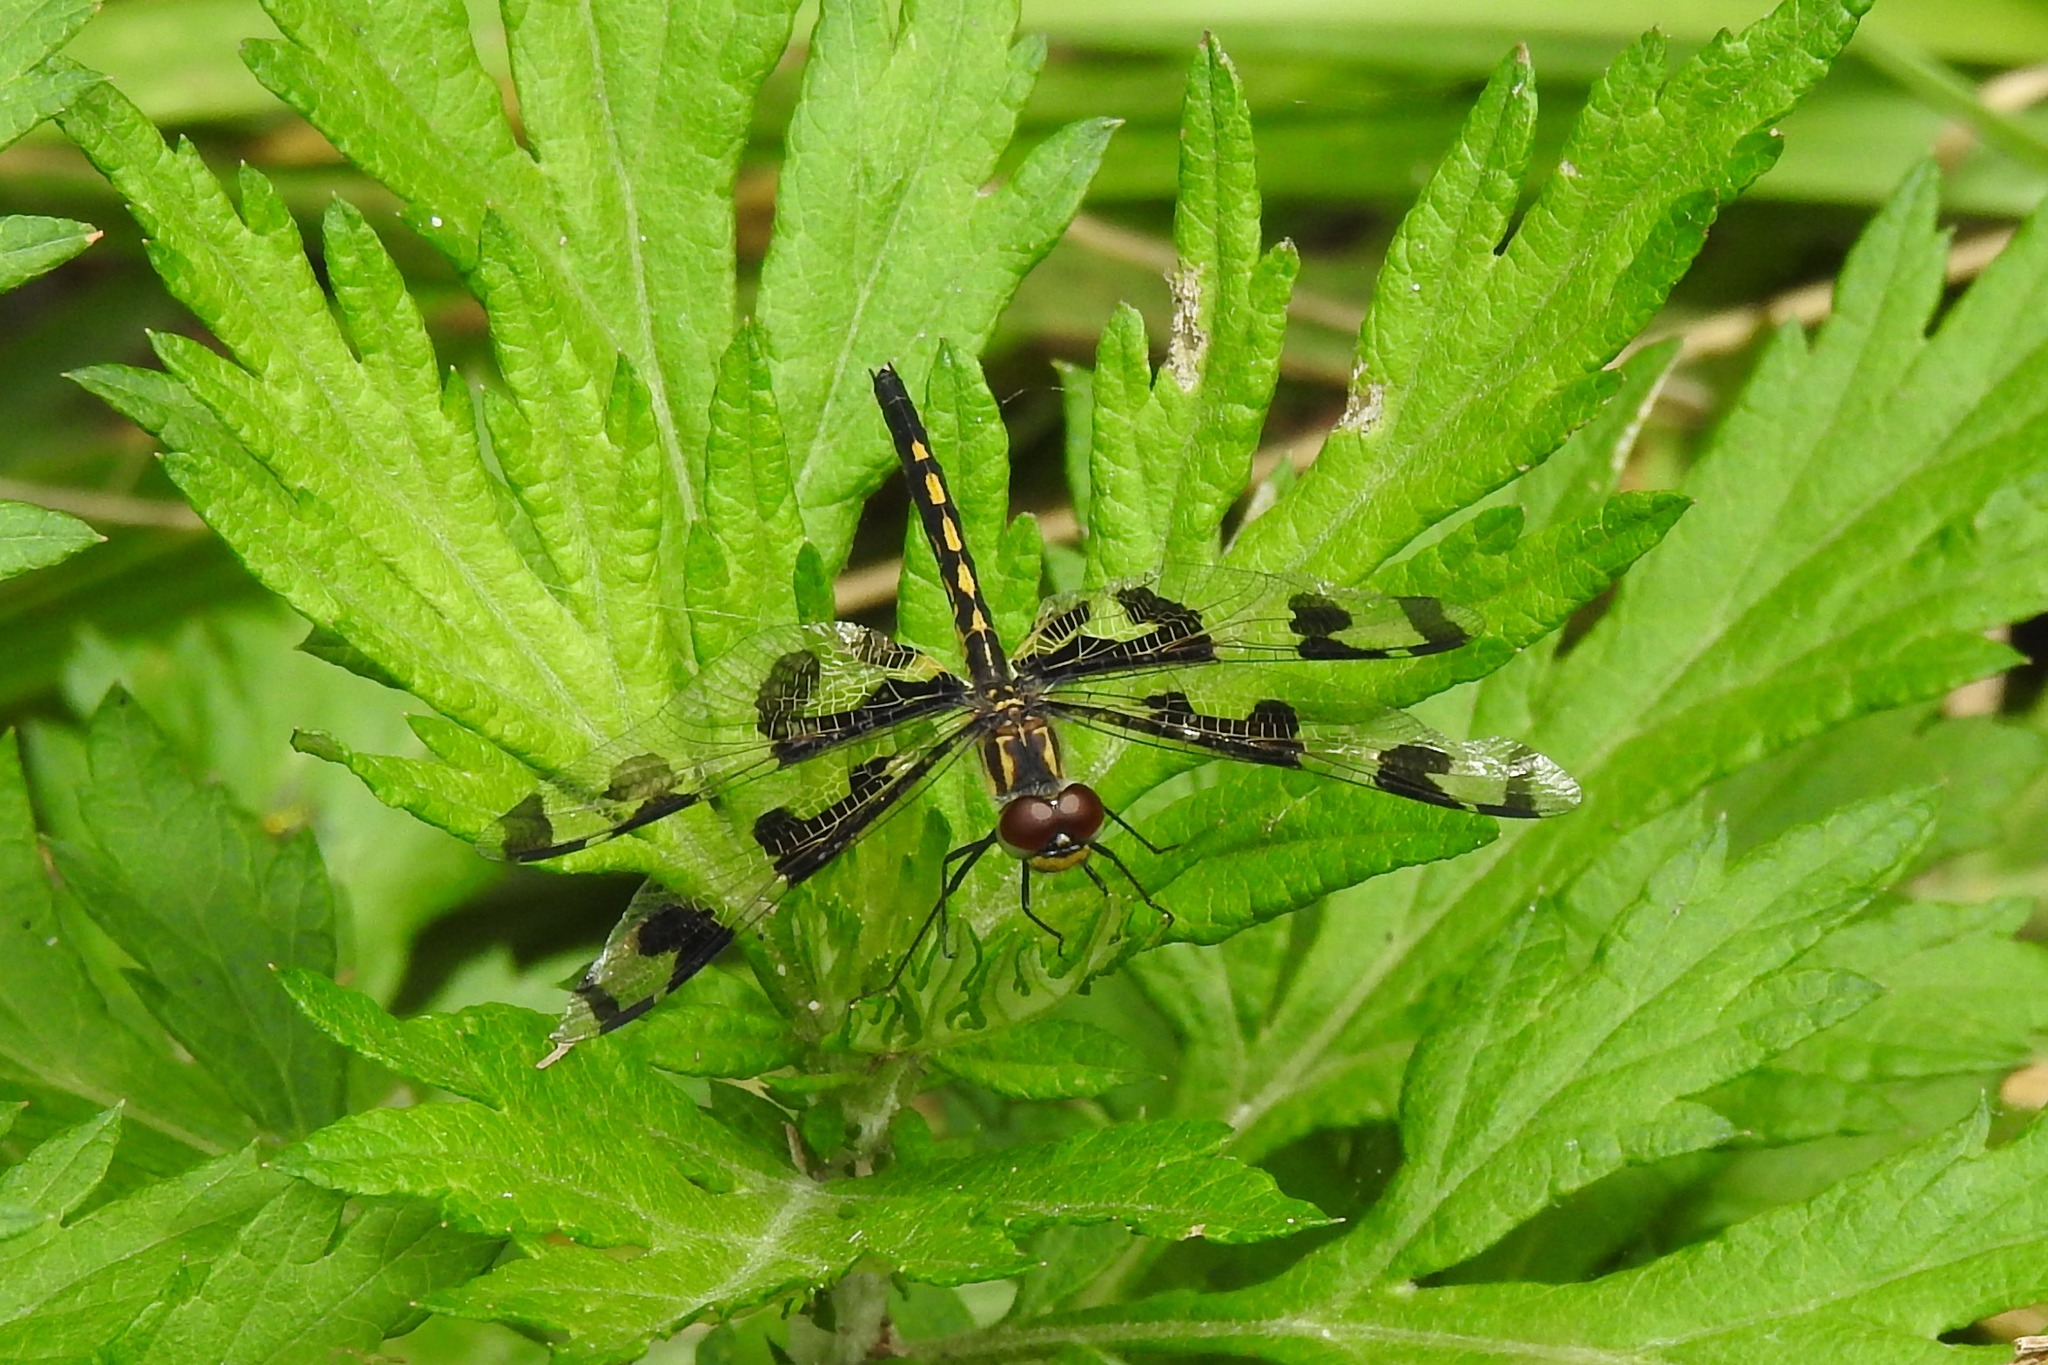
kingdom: Animalia
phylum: Arthropoda
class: Insecta
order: Odonata
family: Libellulidae
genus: Celithemis
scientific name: Celithemis fasciata
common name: Banded pennant
